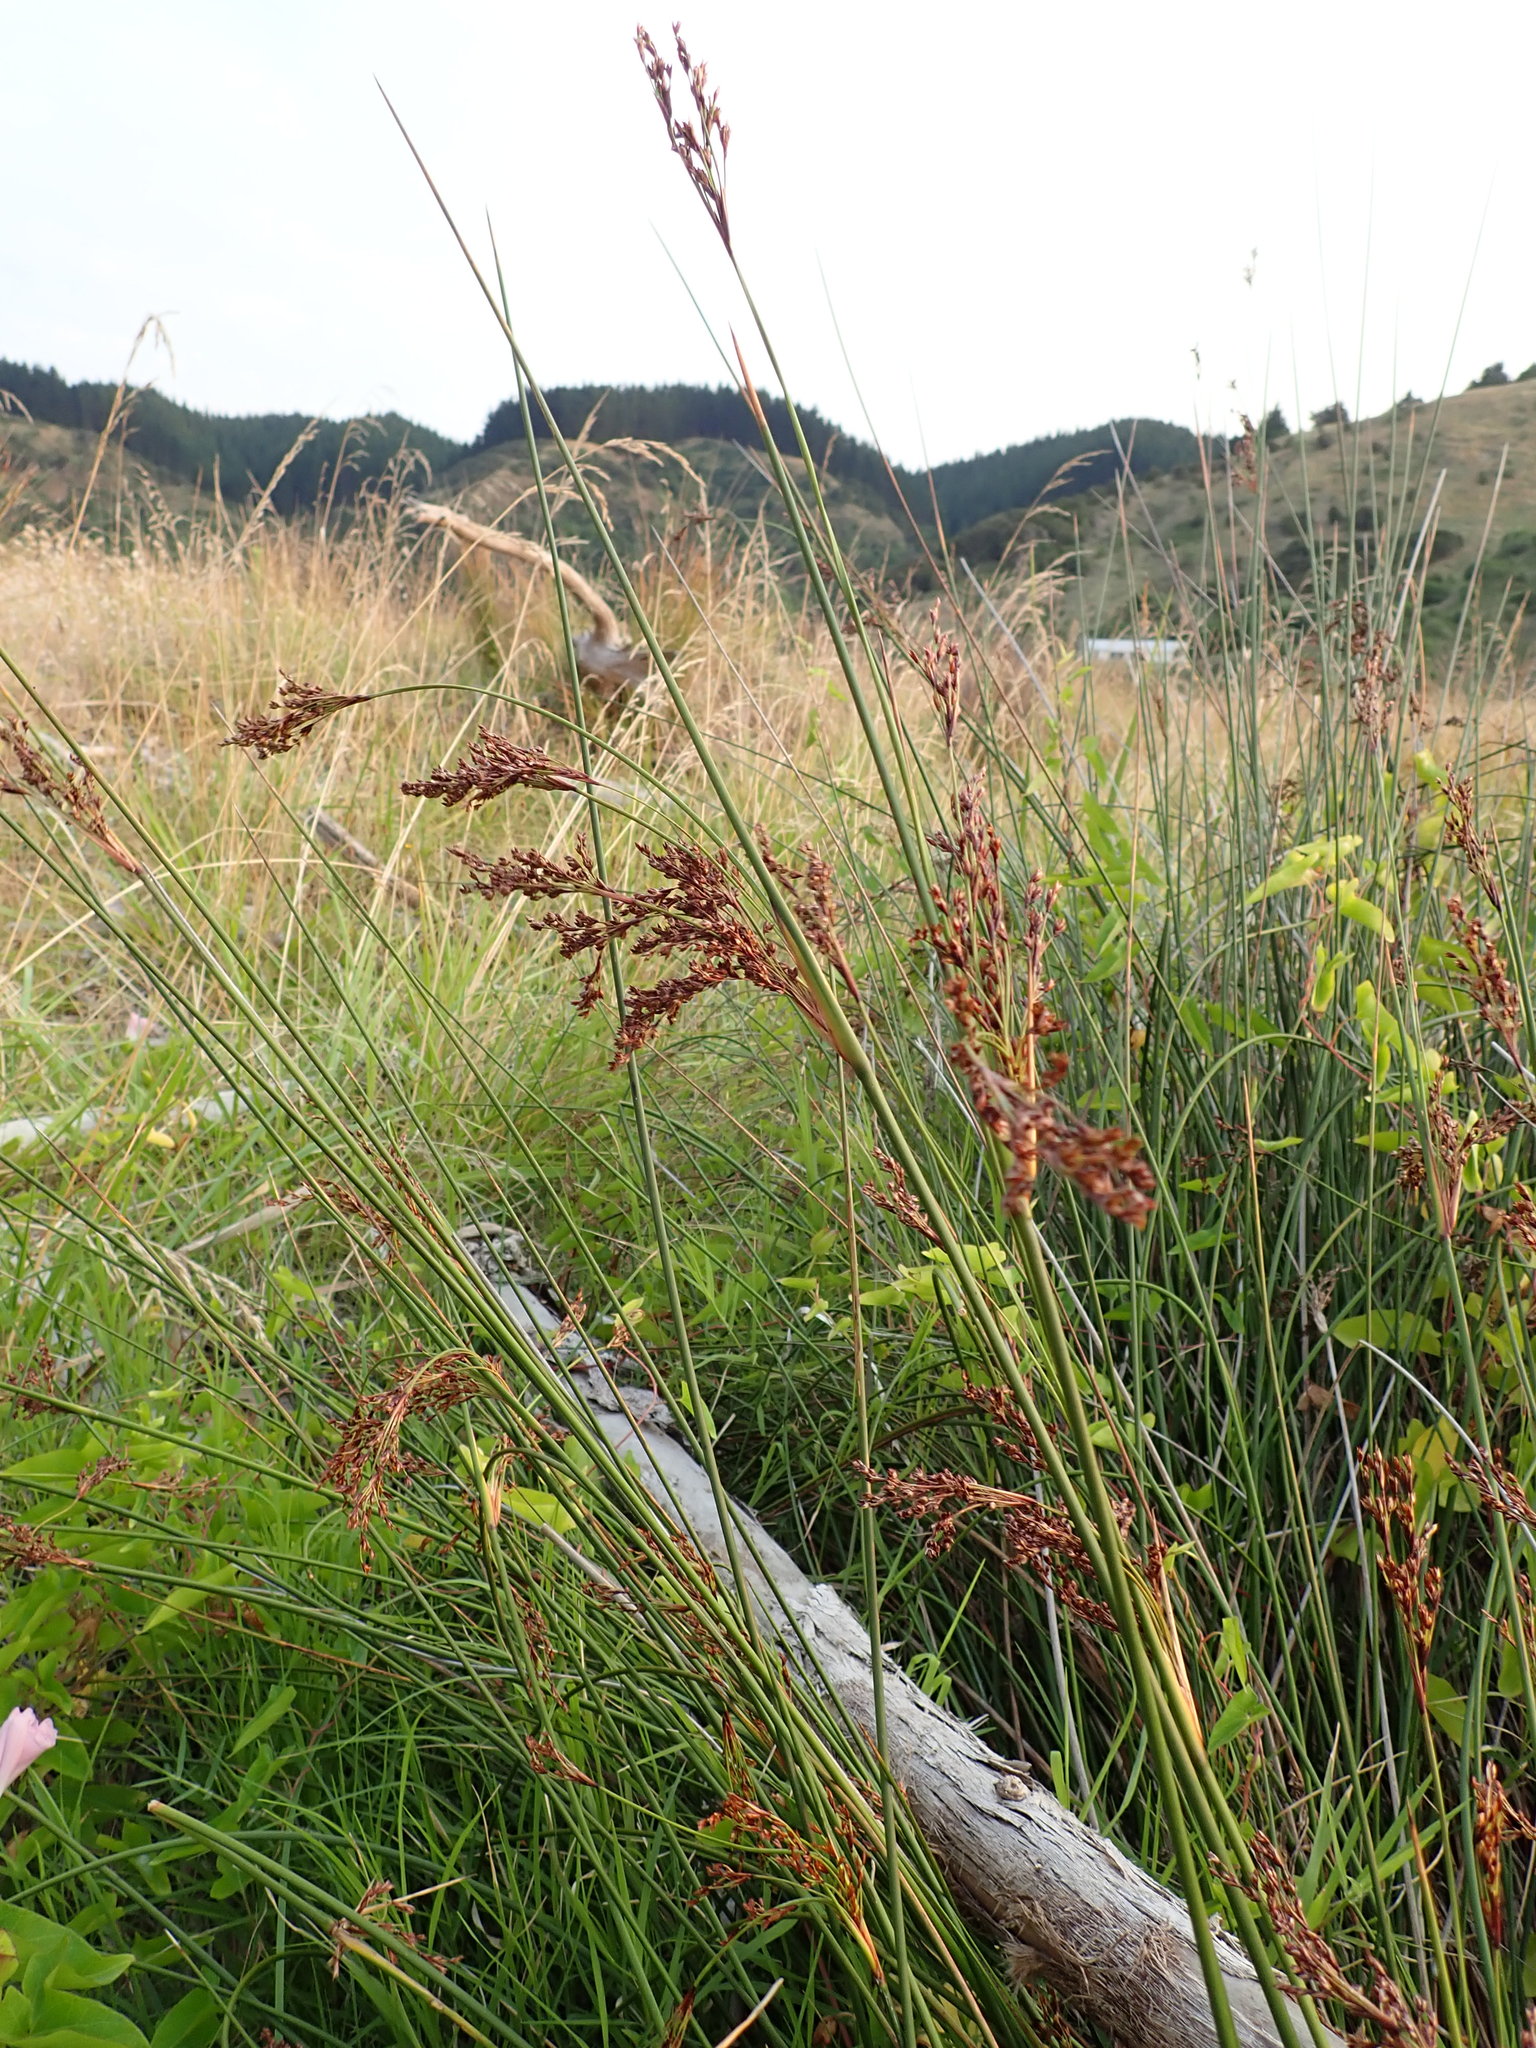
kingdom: Plantae
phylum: Tracheophyta
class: Liliopsida
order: Poales
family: Juncaceae
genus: Juncus
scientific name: Juncus pallidus
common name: Great soft-rush
